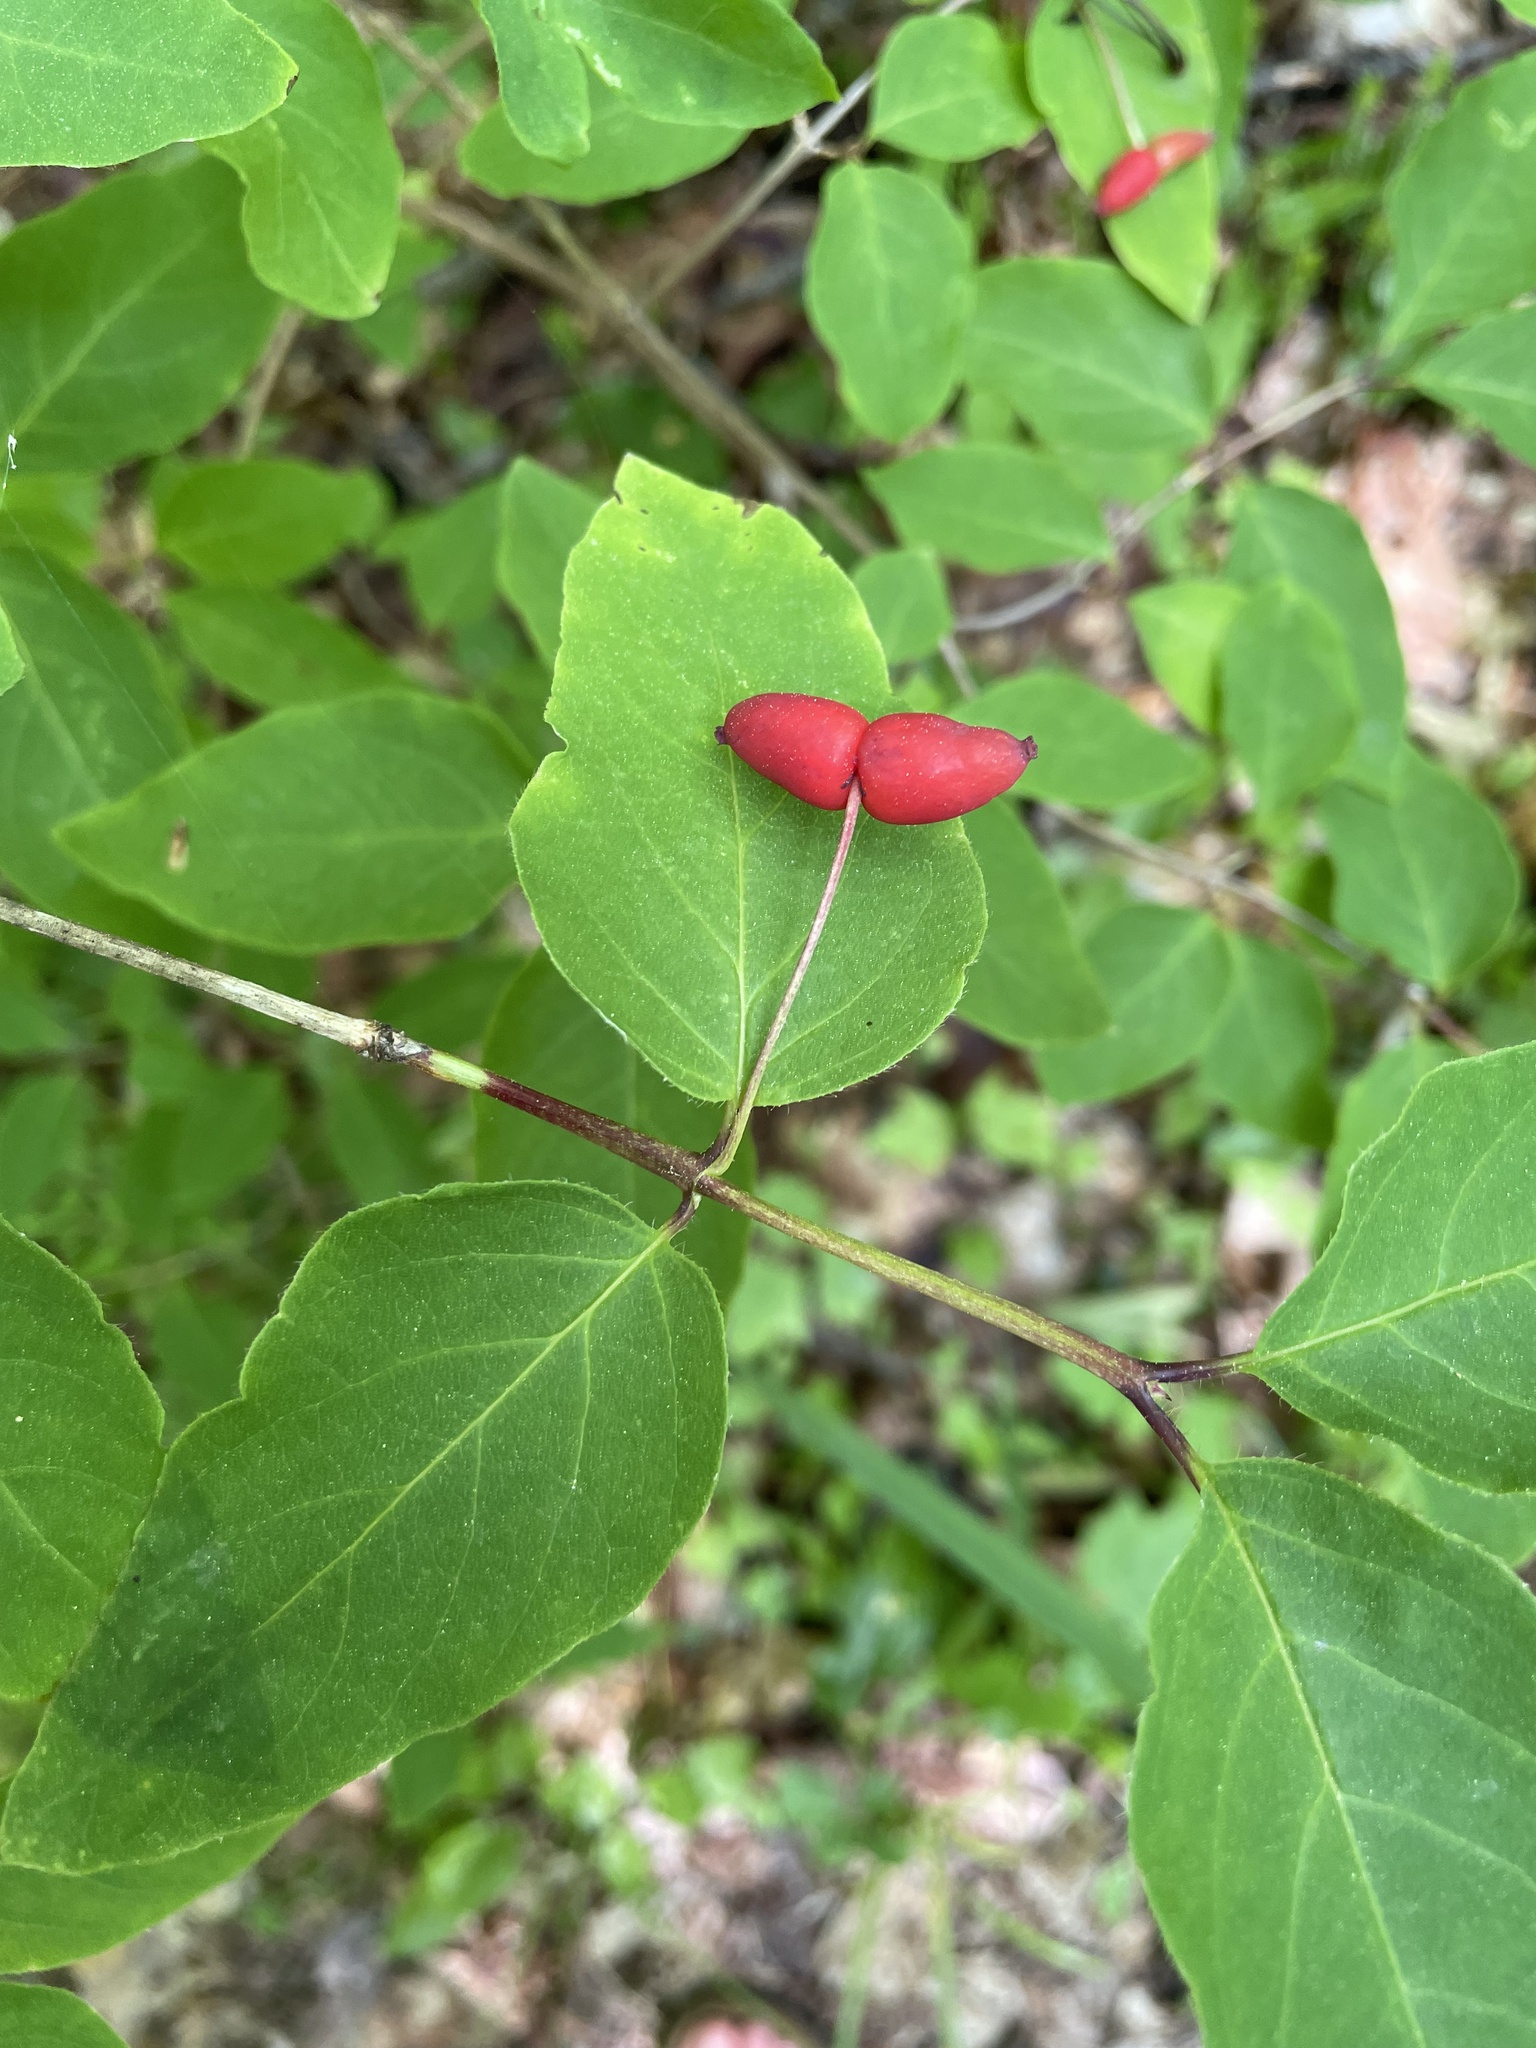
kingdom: Plantae
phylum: Tracheophyta
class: Magnoliopsida
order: Dipsacales
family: Caprifoliaceae
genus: Lonicera
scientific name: Lonicera canadensis
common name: American fly-honeysuckle
